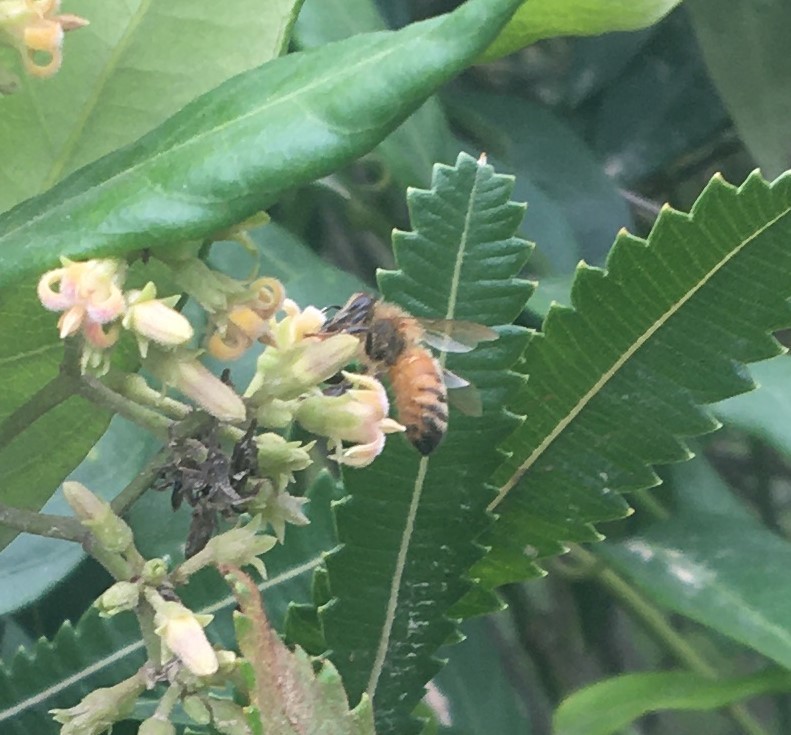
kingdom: Animalia
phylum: Arthropoda
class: Insecta
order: Hymenoptera
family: Apidae
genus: Apis
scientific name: Apis mellifera
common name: Honey bee
